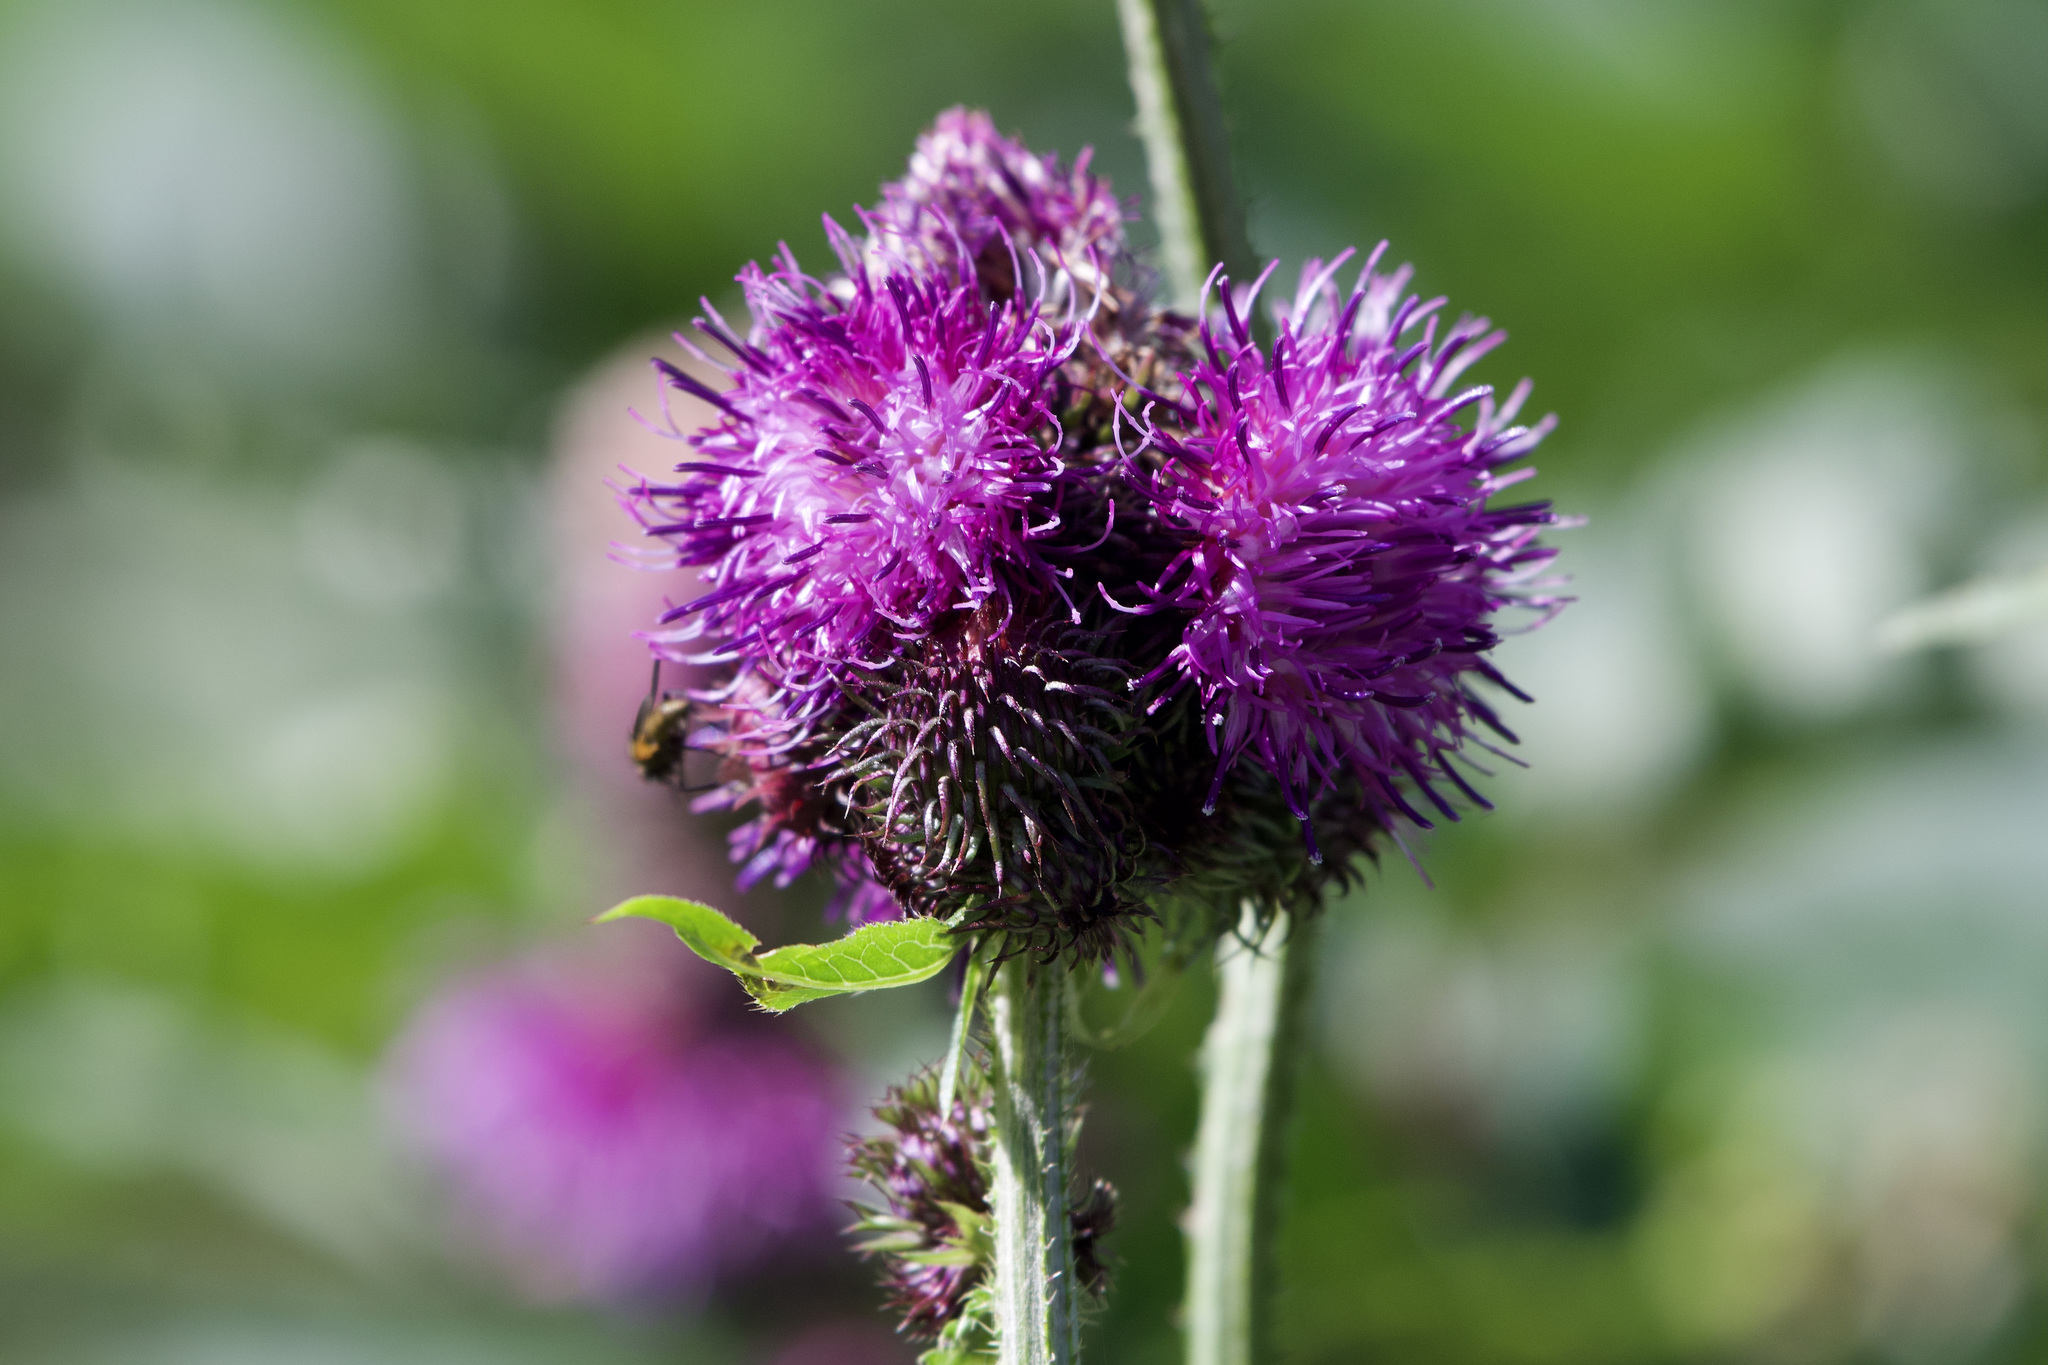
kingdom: Plantae
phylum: Tracheophyta
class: Magnoliopsida
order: Asterales
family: Asteraceae
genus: Carduus
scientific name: Carduus personata
